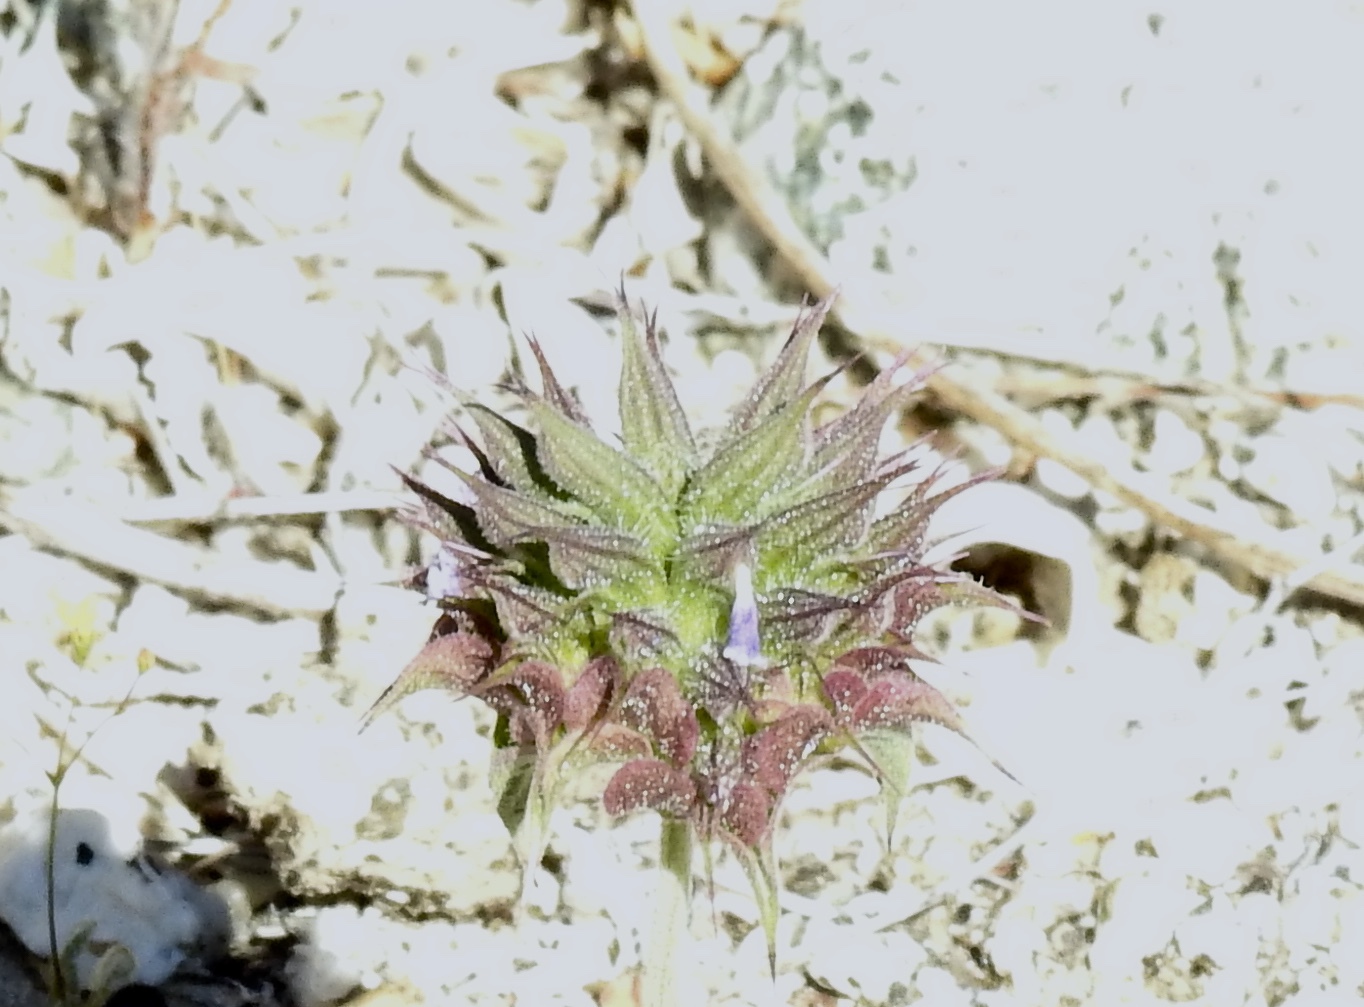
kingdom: Plantae
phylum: Tracheophyta
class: Magnoliopsida
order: Lamiales
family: Lamiaceae
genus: Salvia
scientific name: Salvia columbariae
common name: Chia
